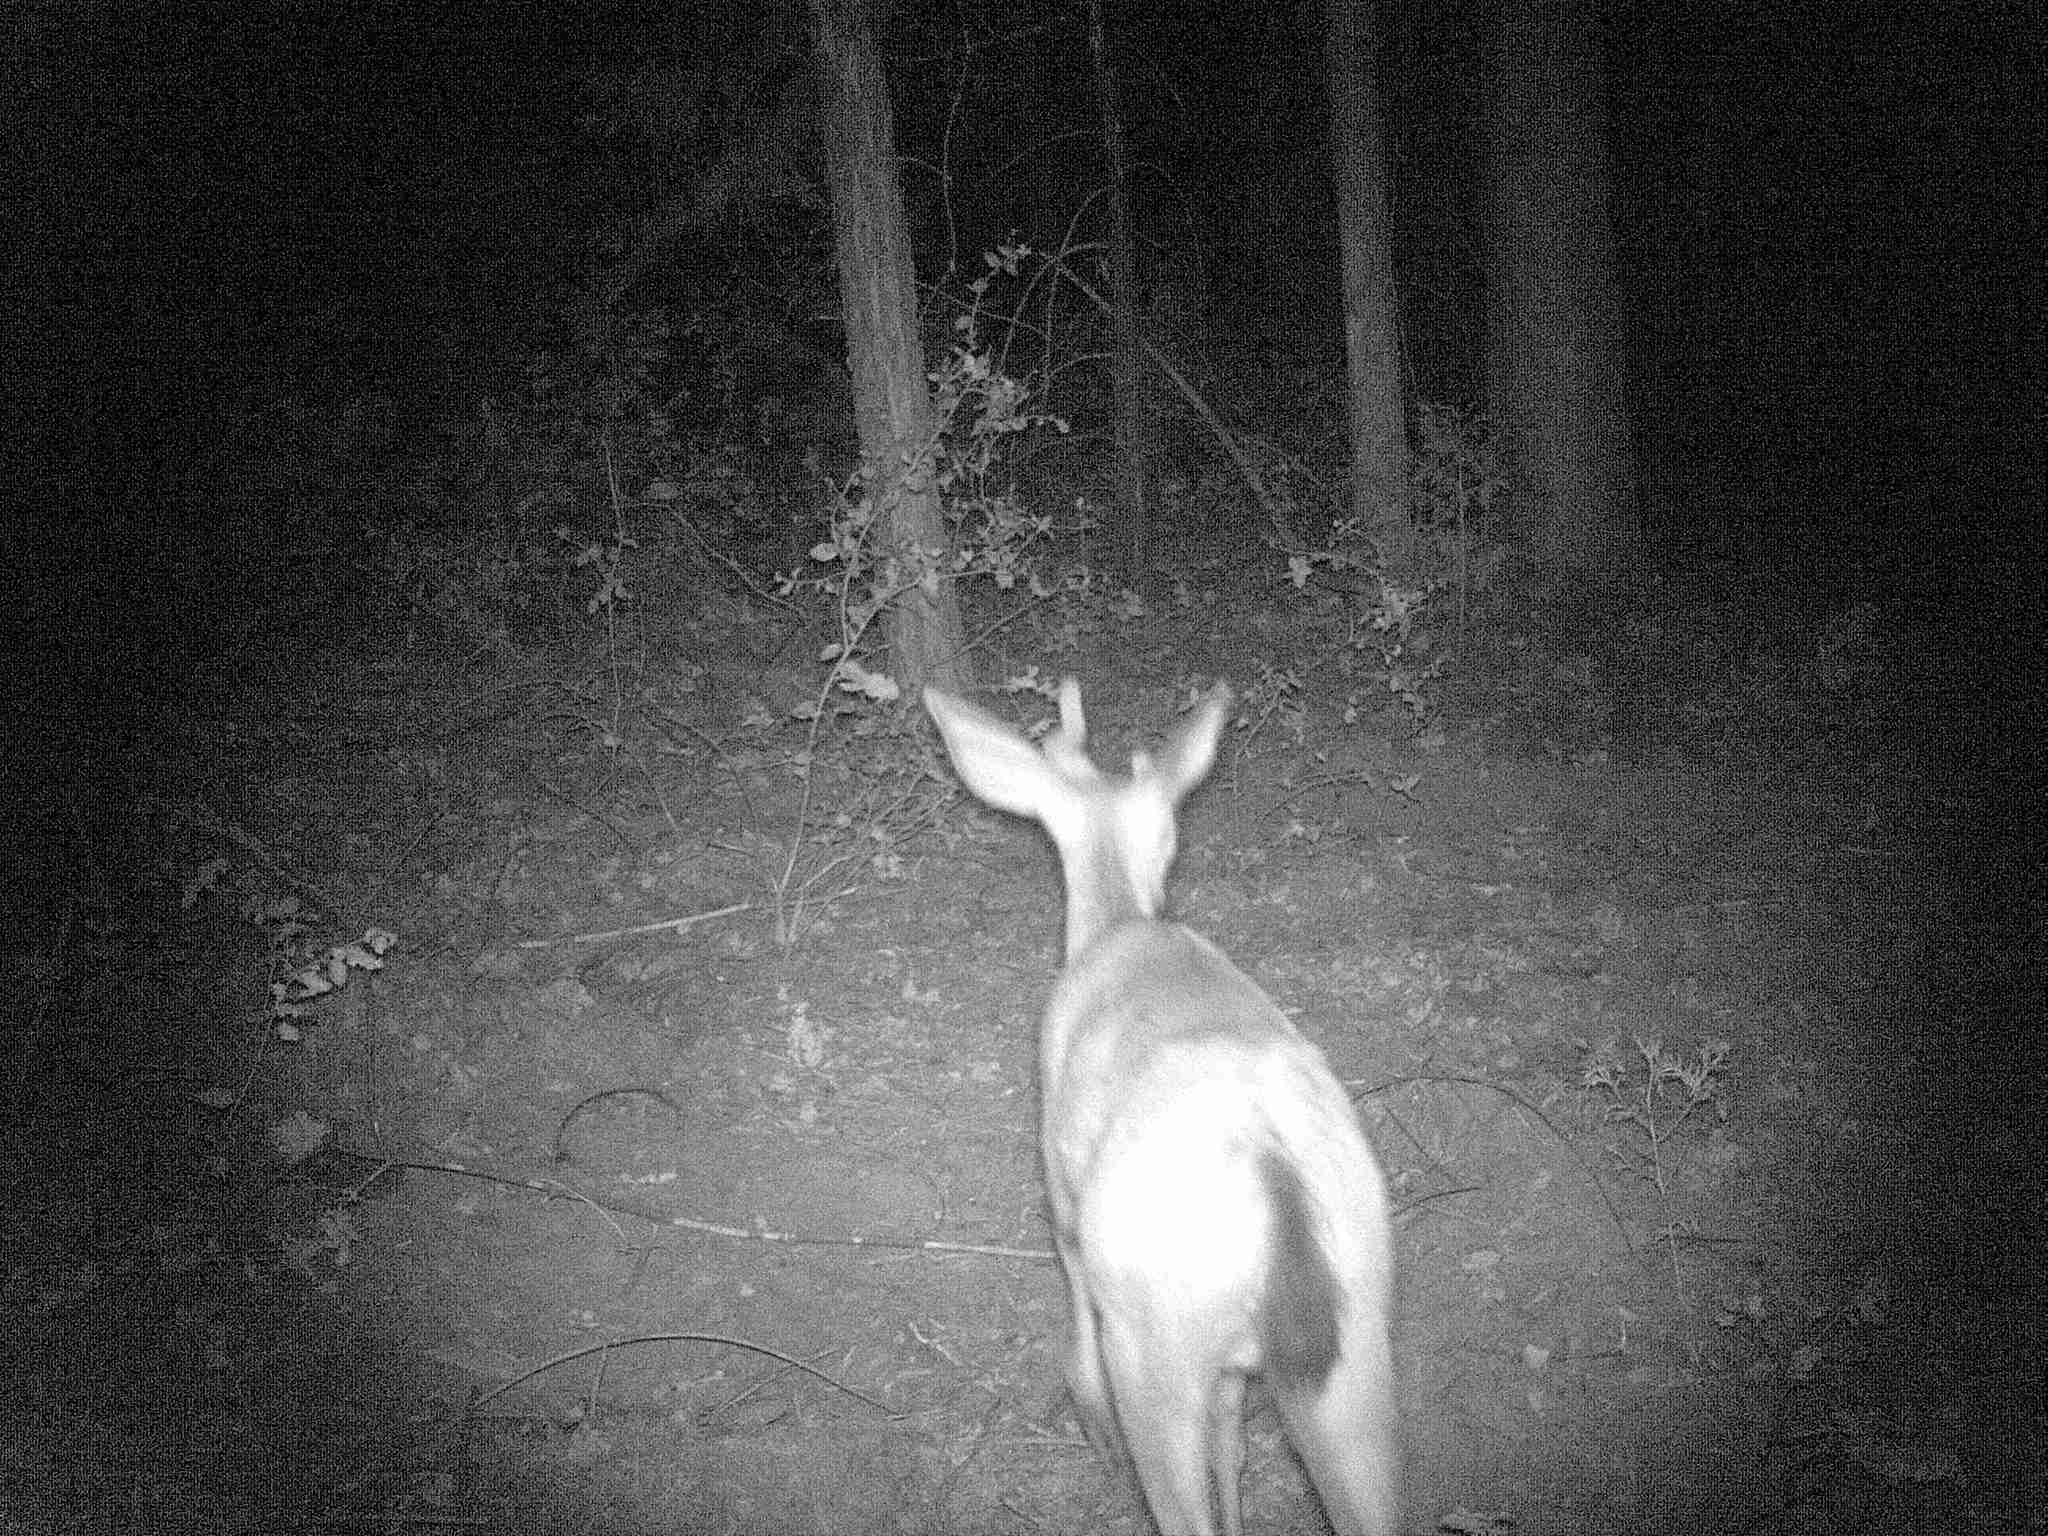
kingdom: Animalia
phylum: Chordata
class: Mammalia
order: Artiodactyla
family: Cervidae
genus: Odocoileus
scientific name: Odocoileus hemionus
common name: Mule deer
